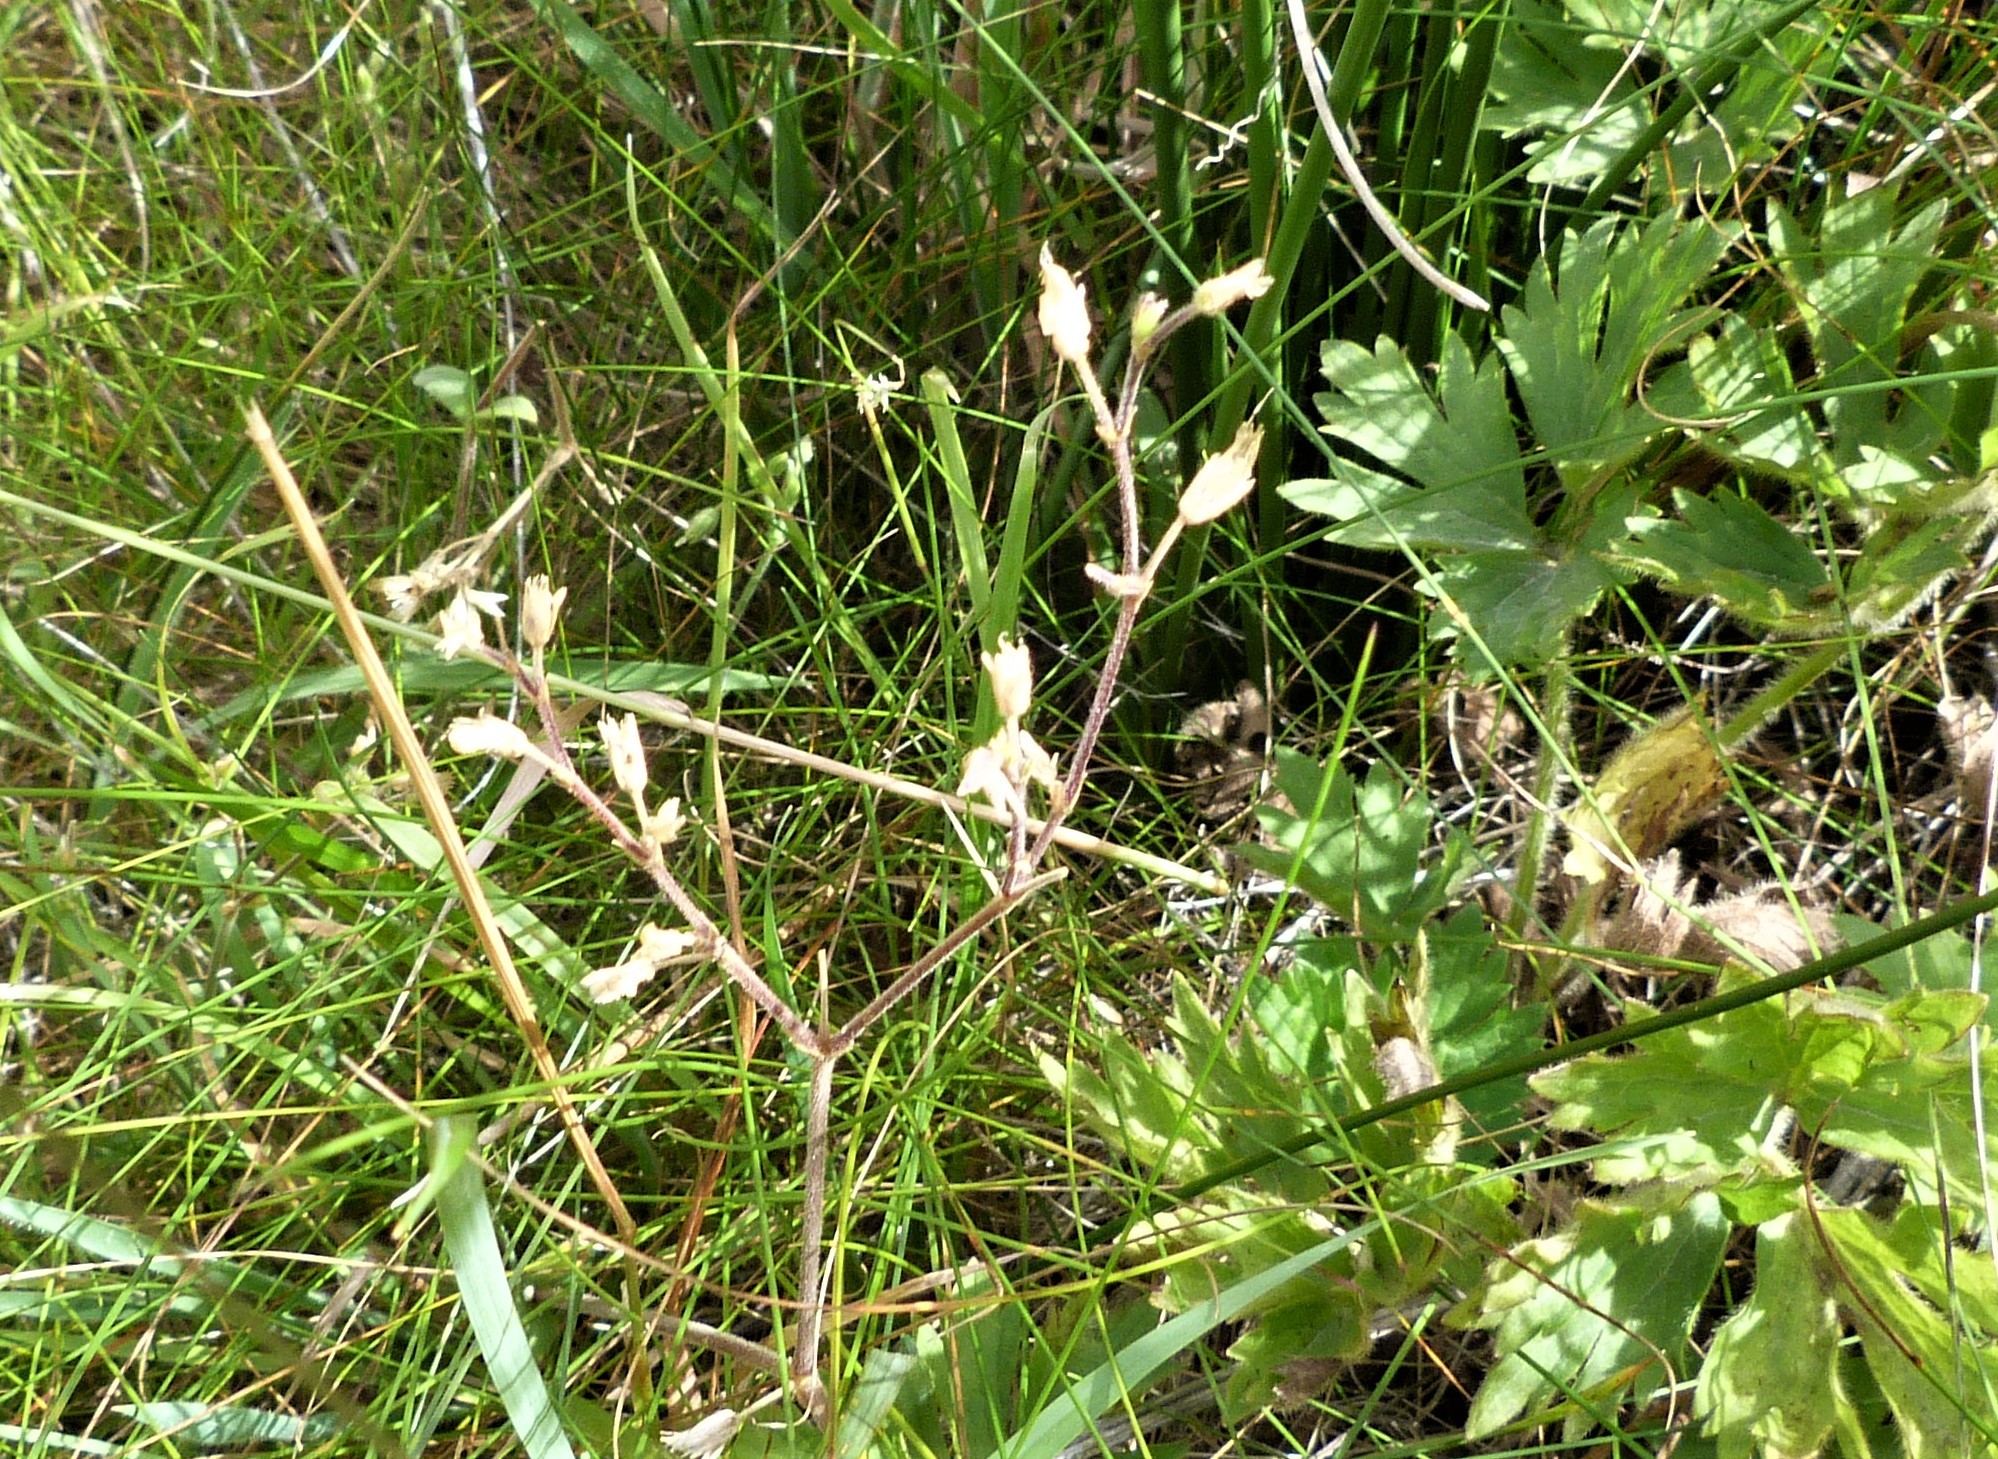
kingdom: Plantae
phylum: Tracheophyta
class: Magnoliopsida
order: Caryophyllales
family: Caryophyllaceae
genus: Cerastium
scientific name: Cerastium fontanum
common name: Common mouse-ear
